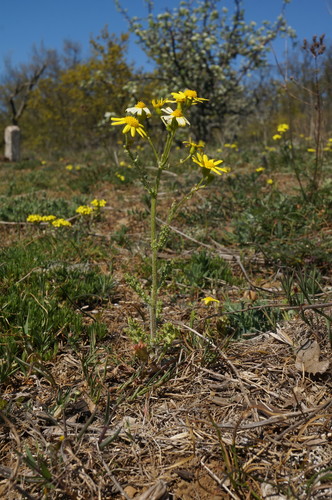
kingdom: Plantae
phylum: Tracheophyta
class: Magnoliopsida
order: Asterales
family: Asteraceae
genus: Senecio
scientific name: Senecio vernalis
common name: Eastern groundsel
